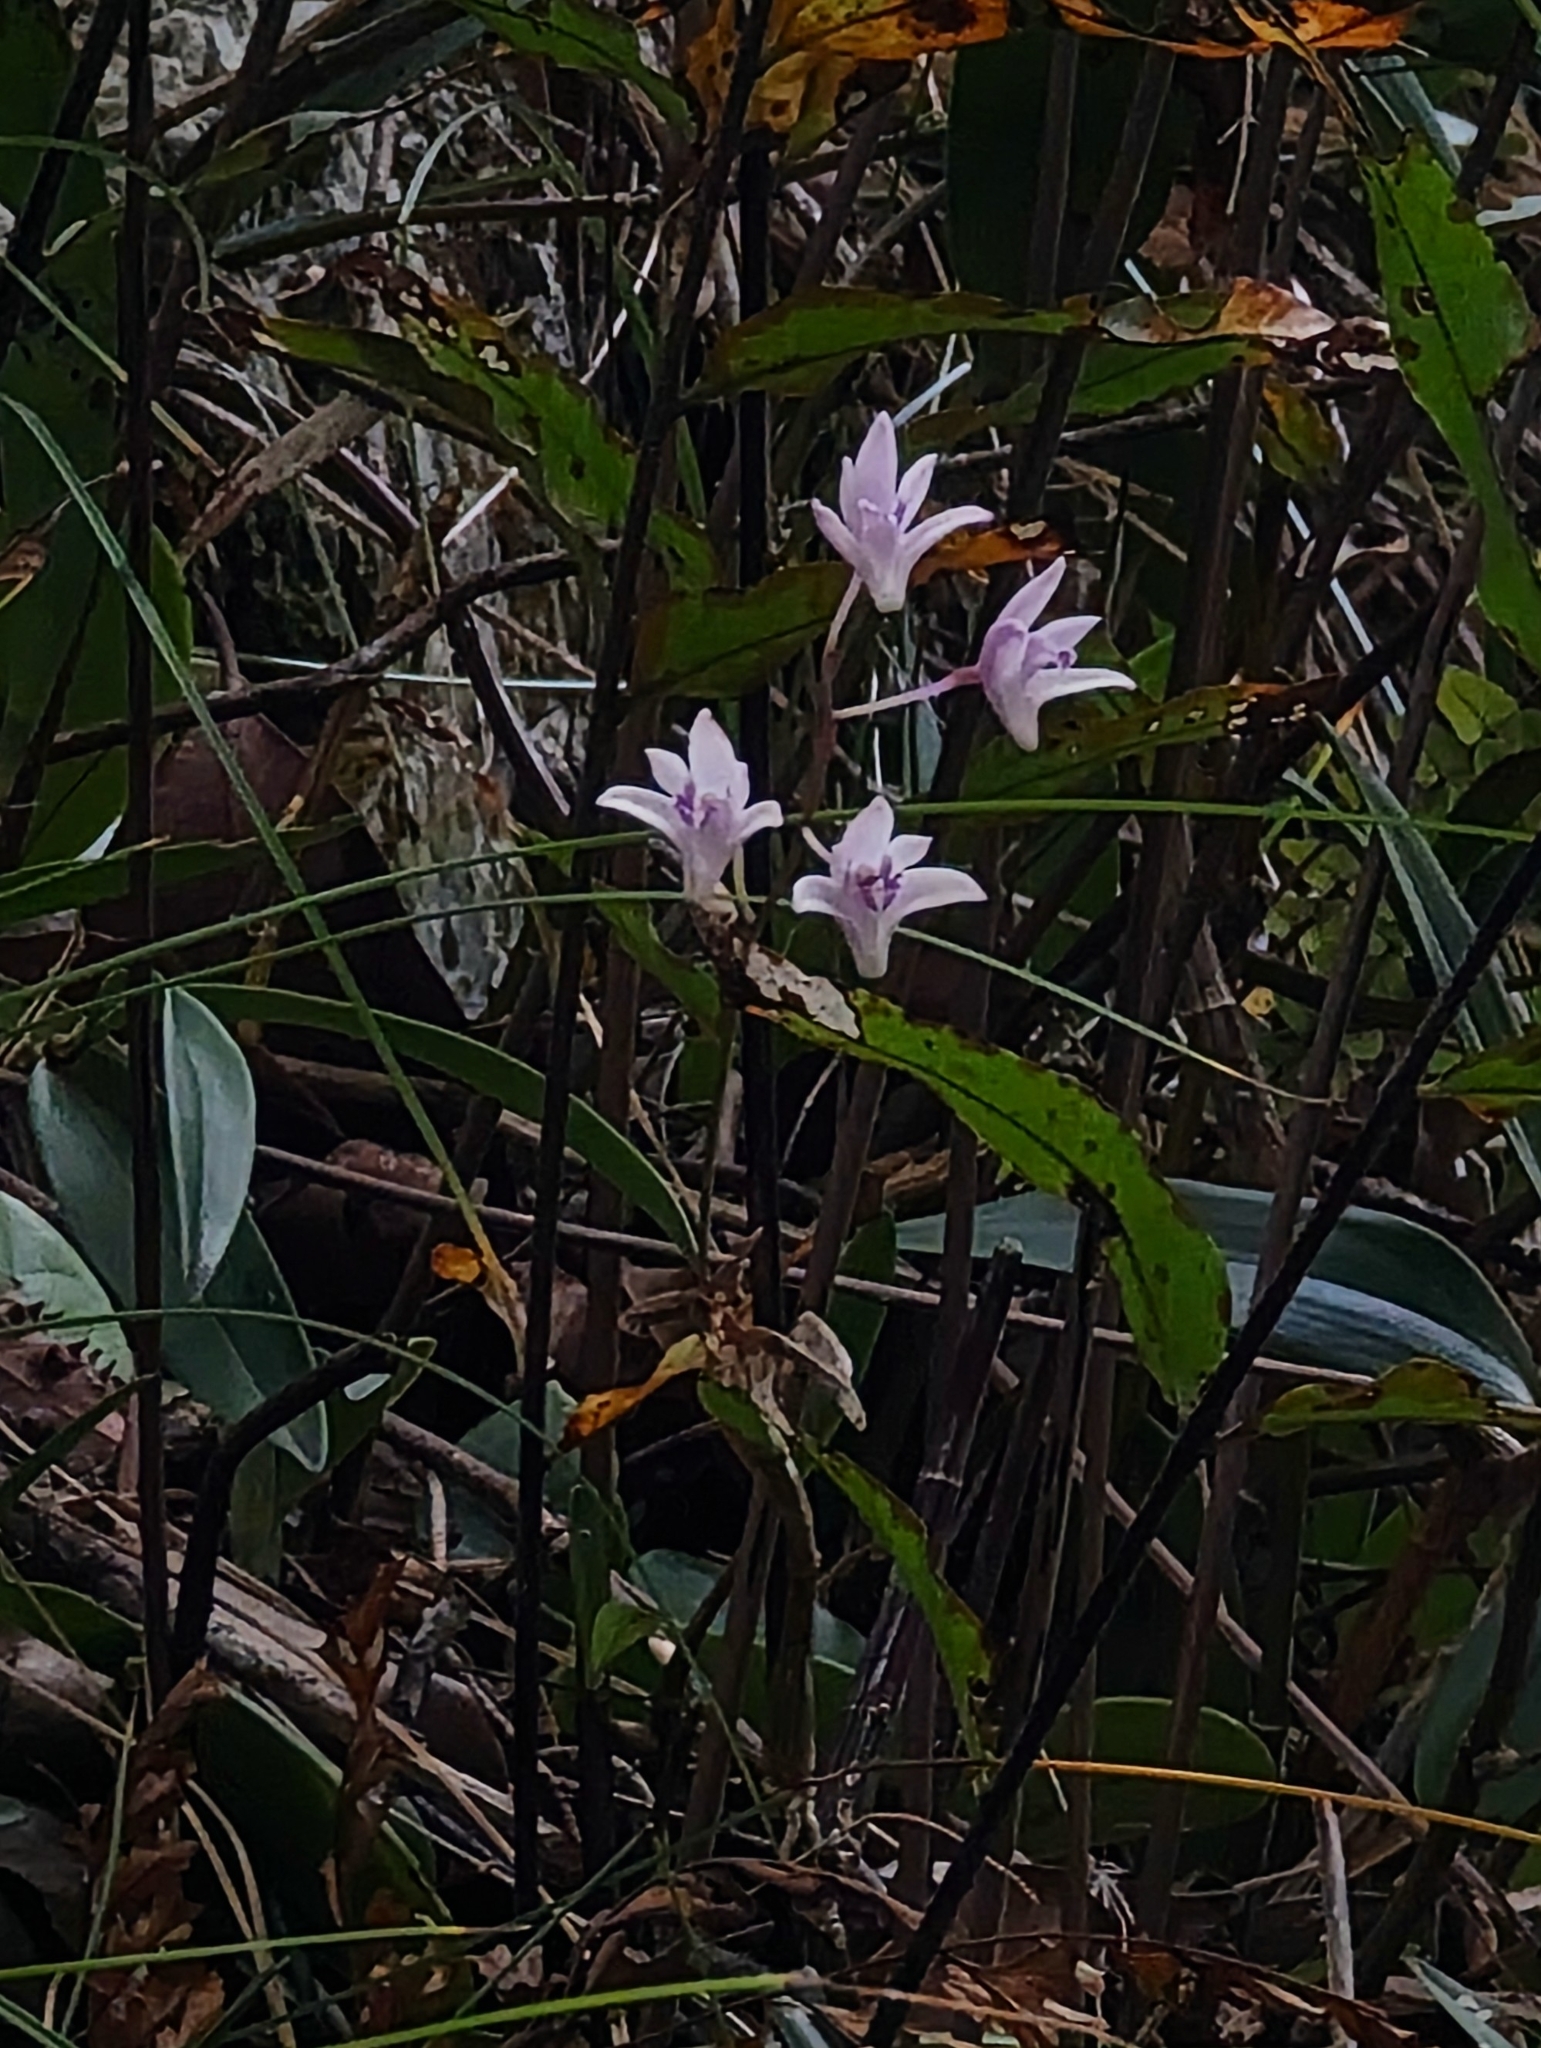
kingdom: Plantae
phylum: Tracheophyta
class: Liliopsida
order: Asparagales
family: Orchidaceae
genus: Dendrobium
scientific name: Dendrobium kingianum
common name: Pink rock orchid
